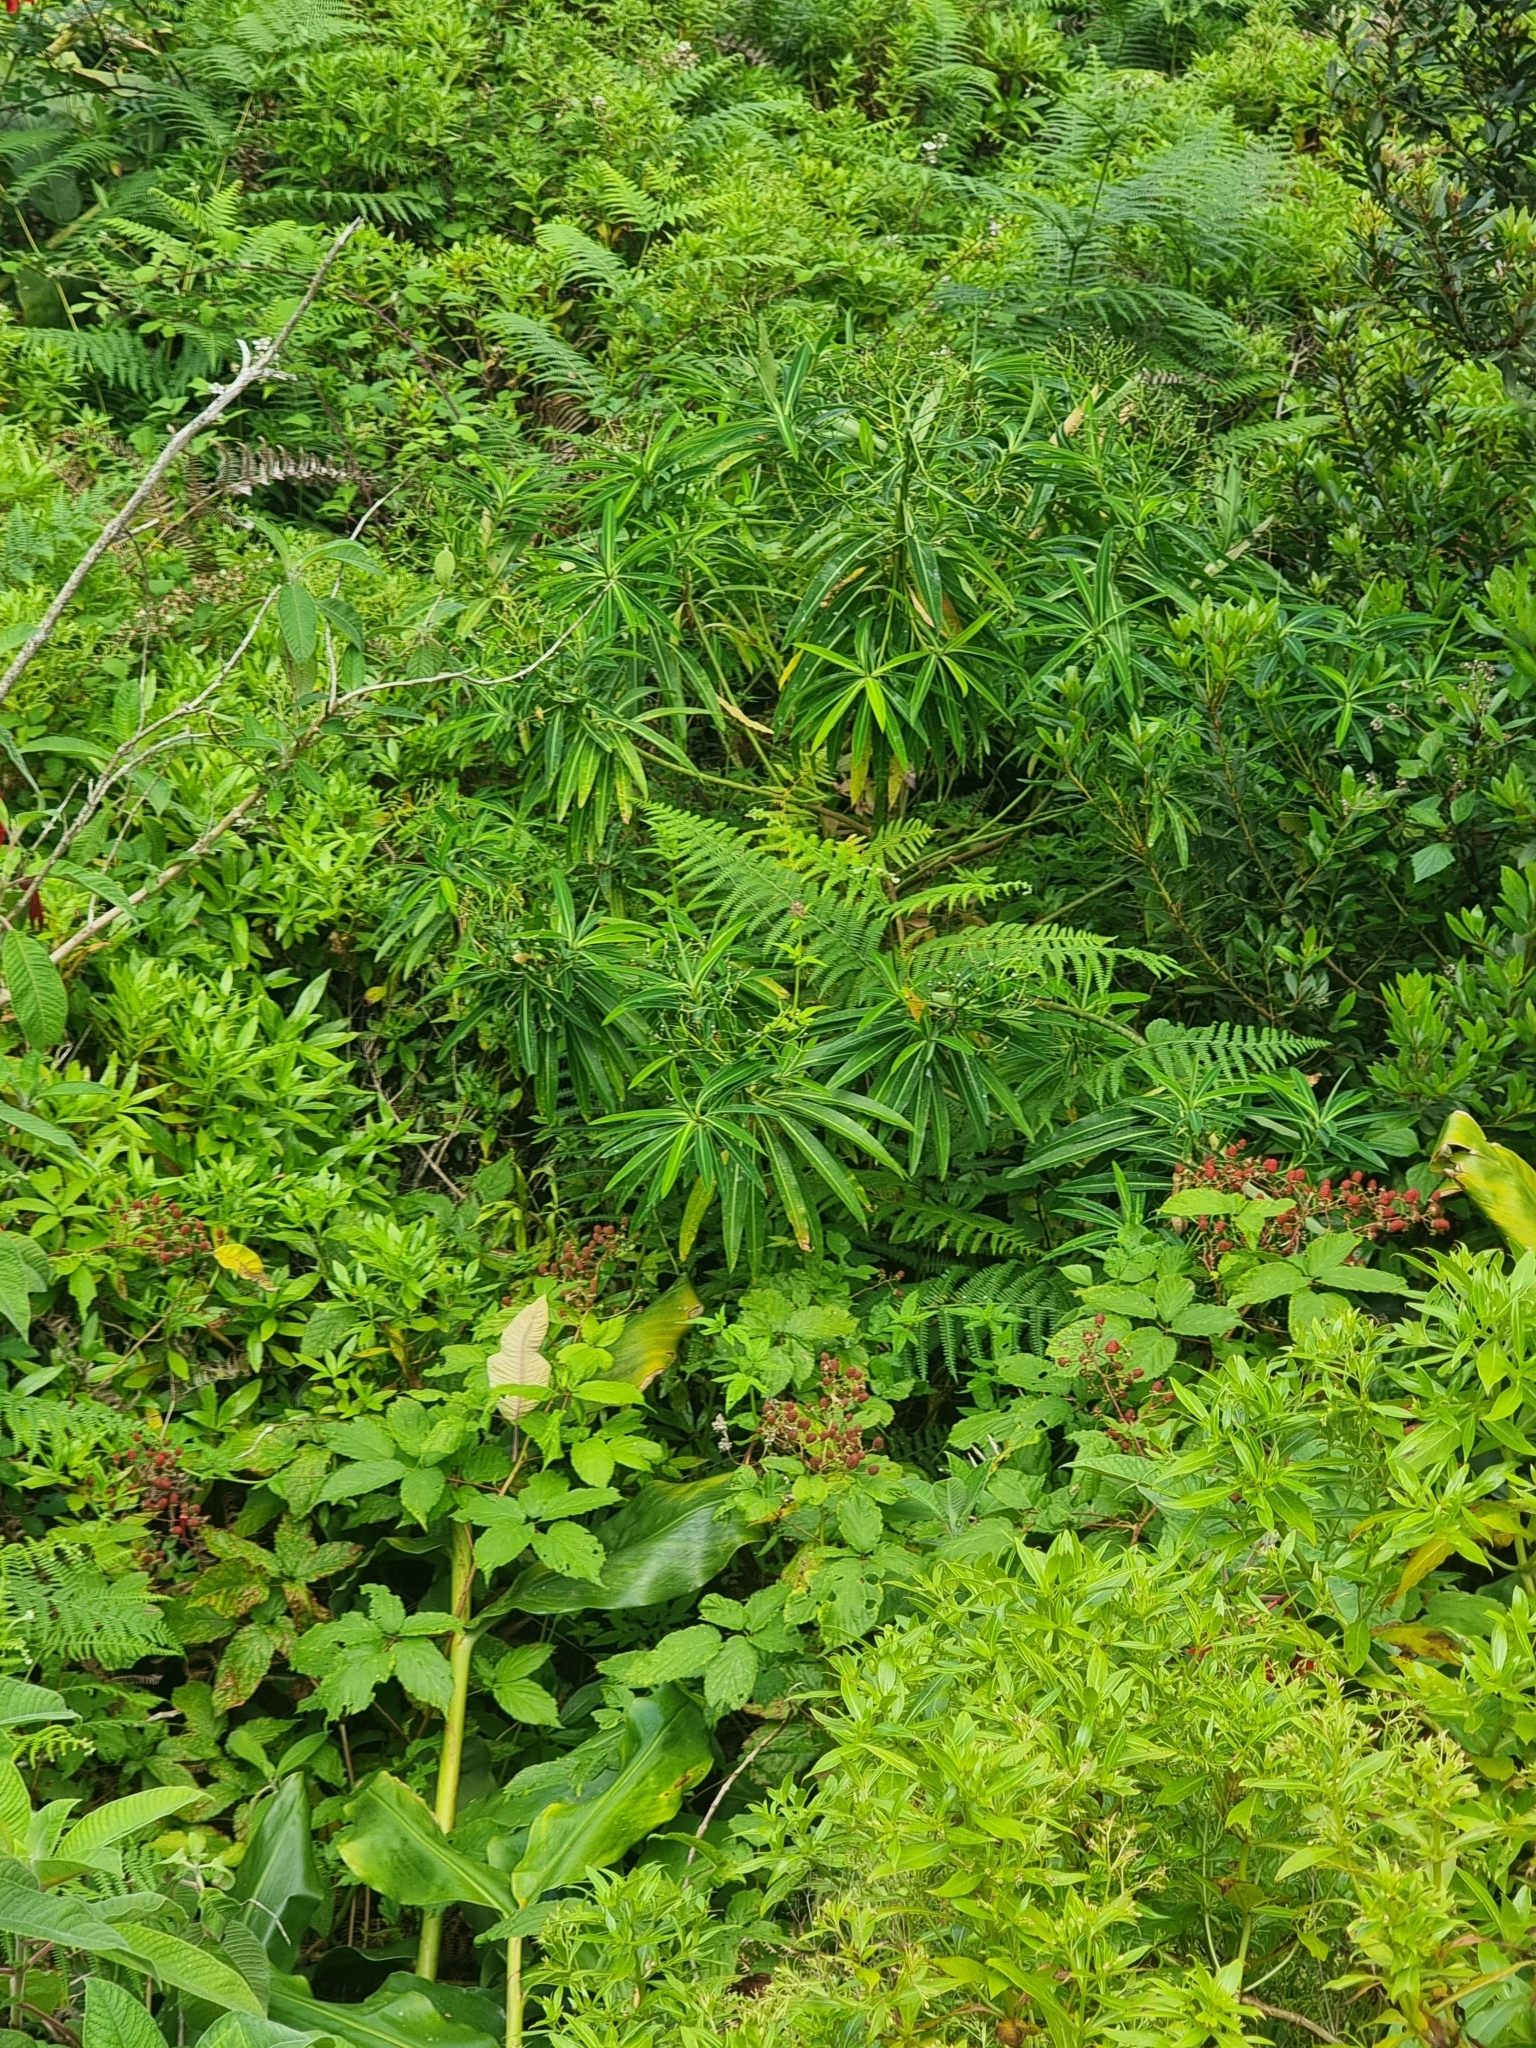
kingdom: Plantae
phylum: Tracheophyta
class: Magnoliopsida
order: Malpighiales
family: Euphorbiaceae
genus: Euphorbia
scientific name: Euphorbia mellifera
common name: Canary spurge
